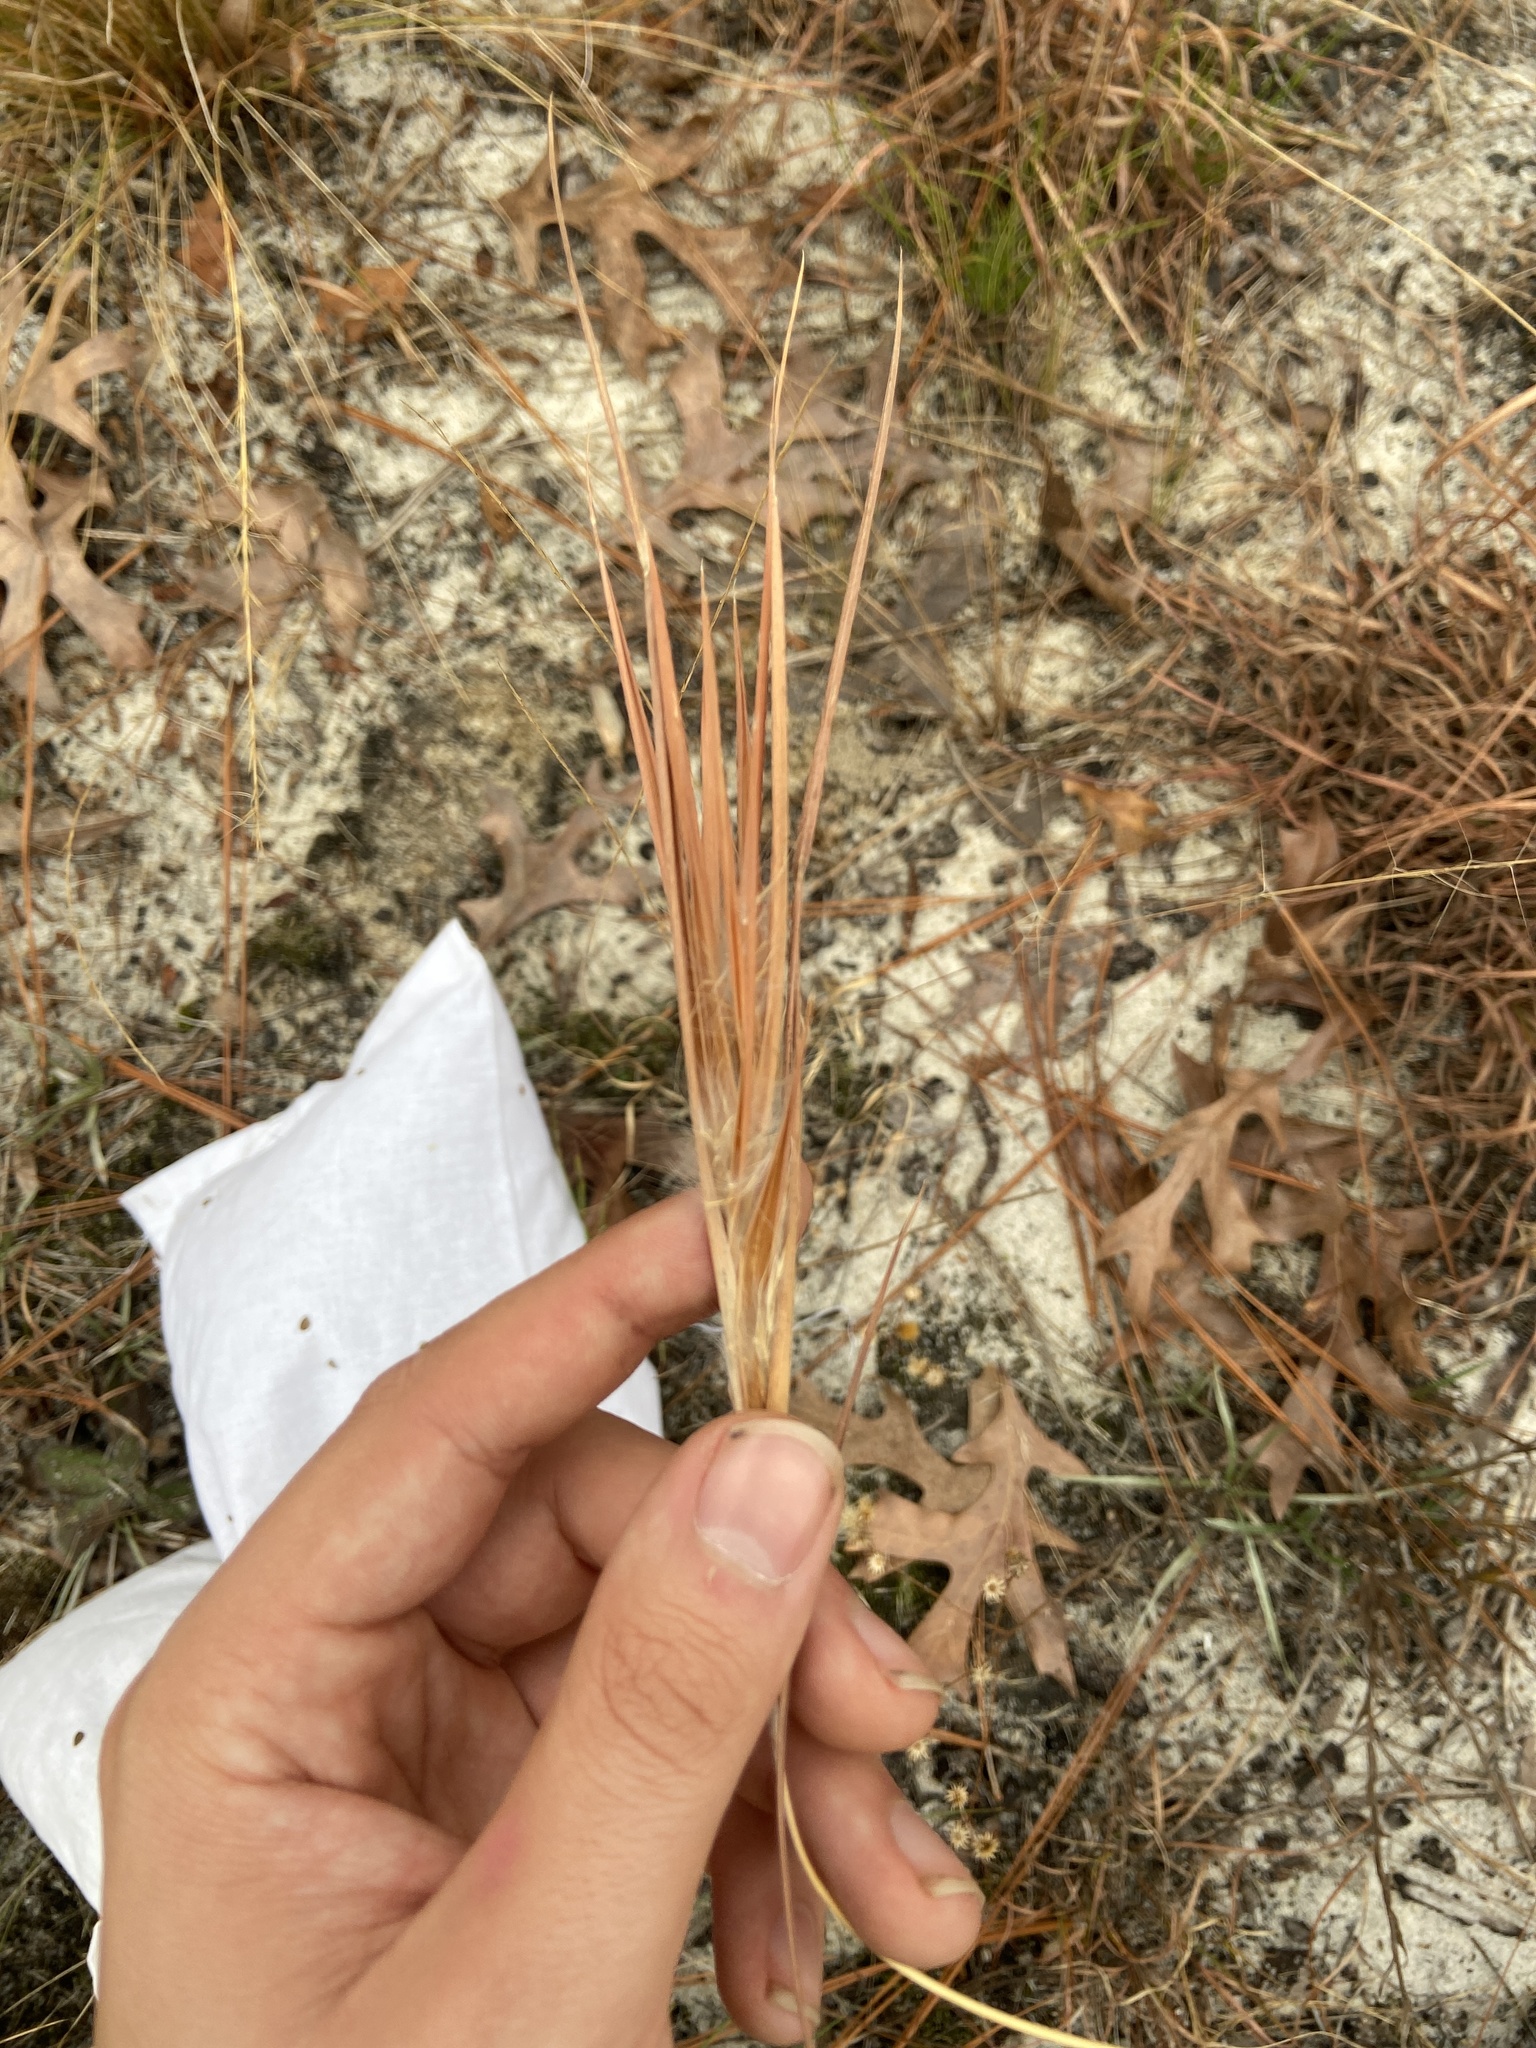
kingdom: Plantae
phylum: Tracheophyta
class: Liliopsida
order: Poales
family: Poaceae
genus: Andropogon
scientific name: Andropogon gyrans
